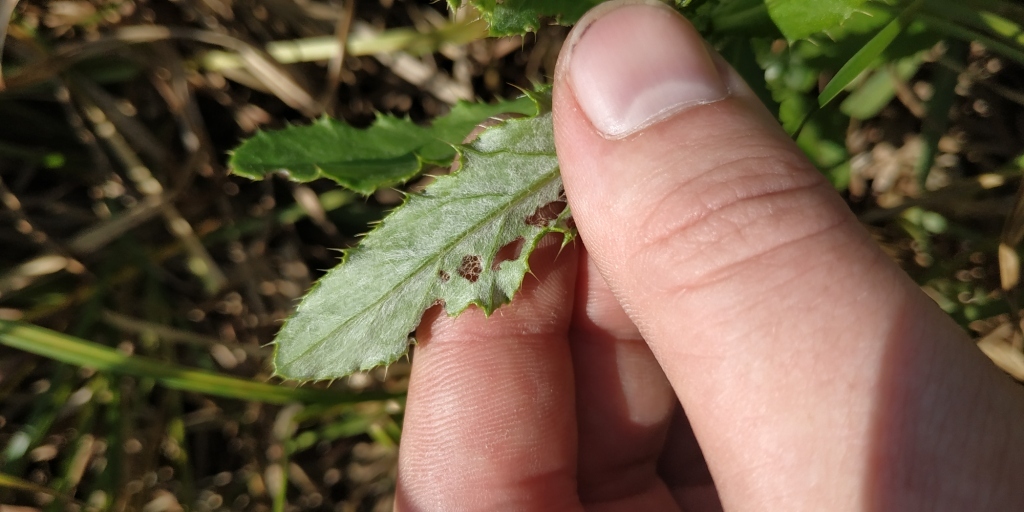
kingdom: Plantae
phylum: Tracheophyta
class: Magnoliopsida
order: Asterales
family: Asteraceae
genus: Cirsium
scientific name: Cirsium arvense
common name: Creeping thistle
